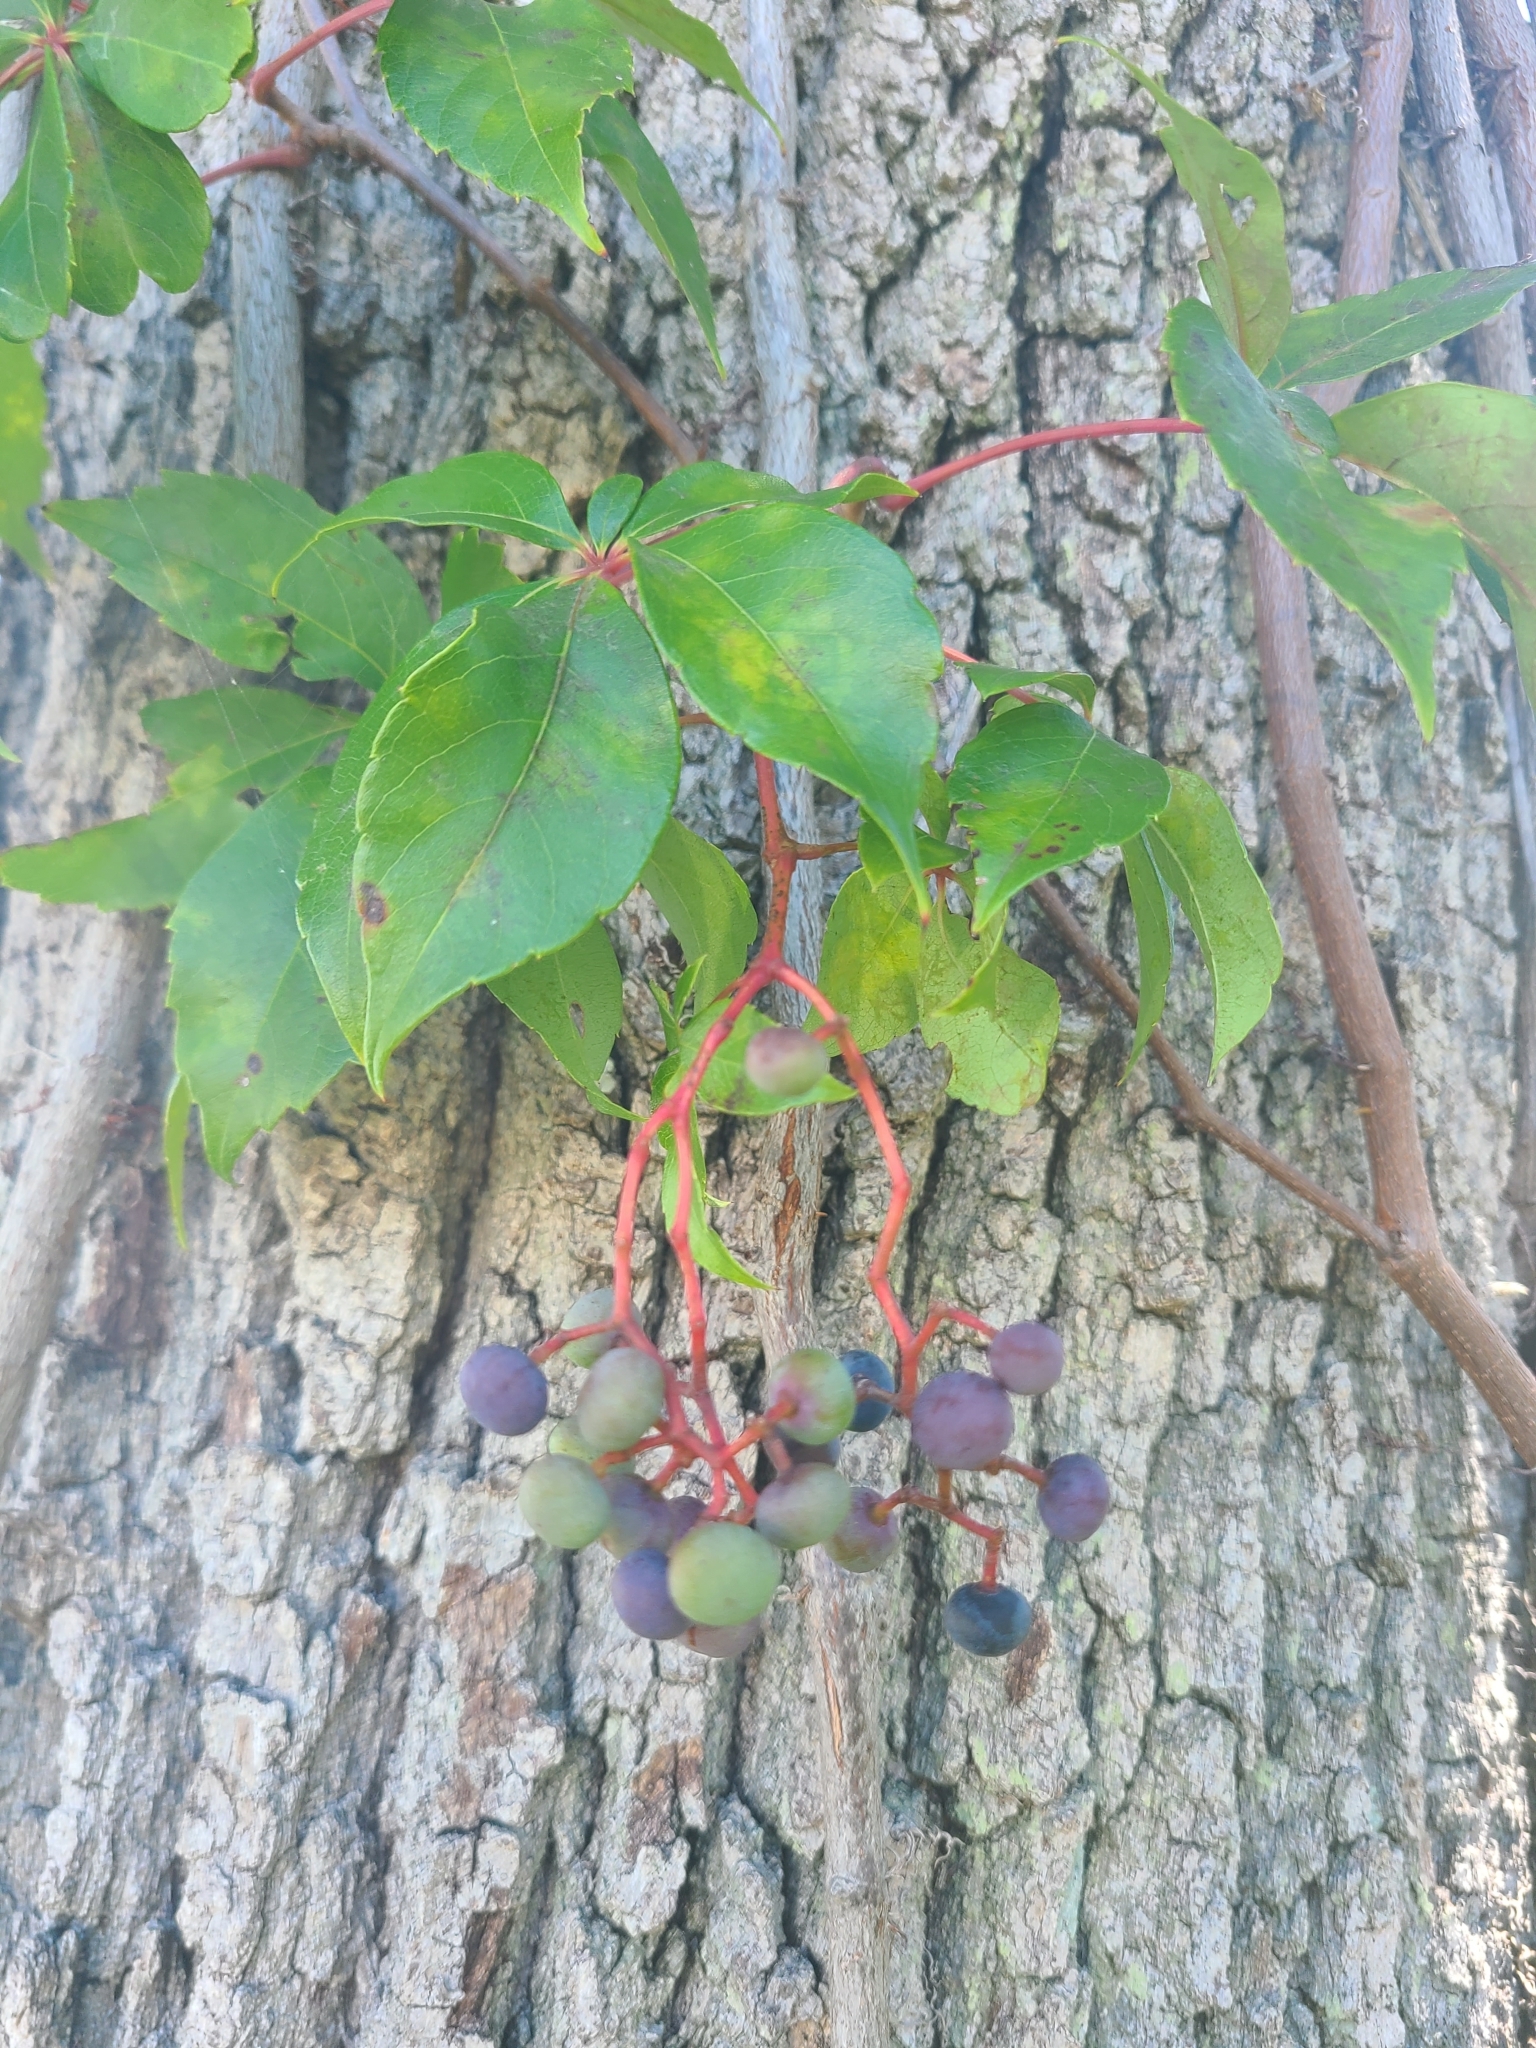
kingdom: Plantae
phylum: Tracheophyta
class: Magnoliopsida
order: Vitales
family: Vitaceae
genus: Parthenocissus
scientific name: Parthenocissus quinquefolia
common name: Virginia-creeper
